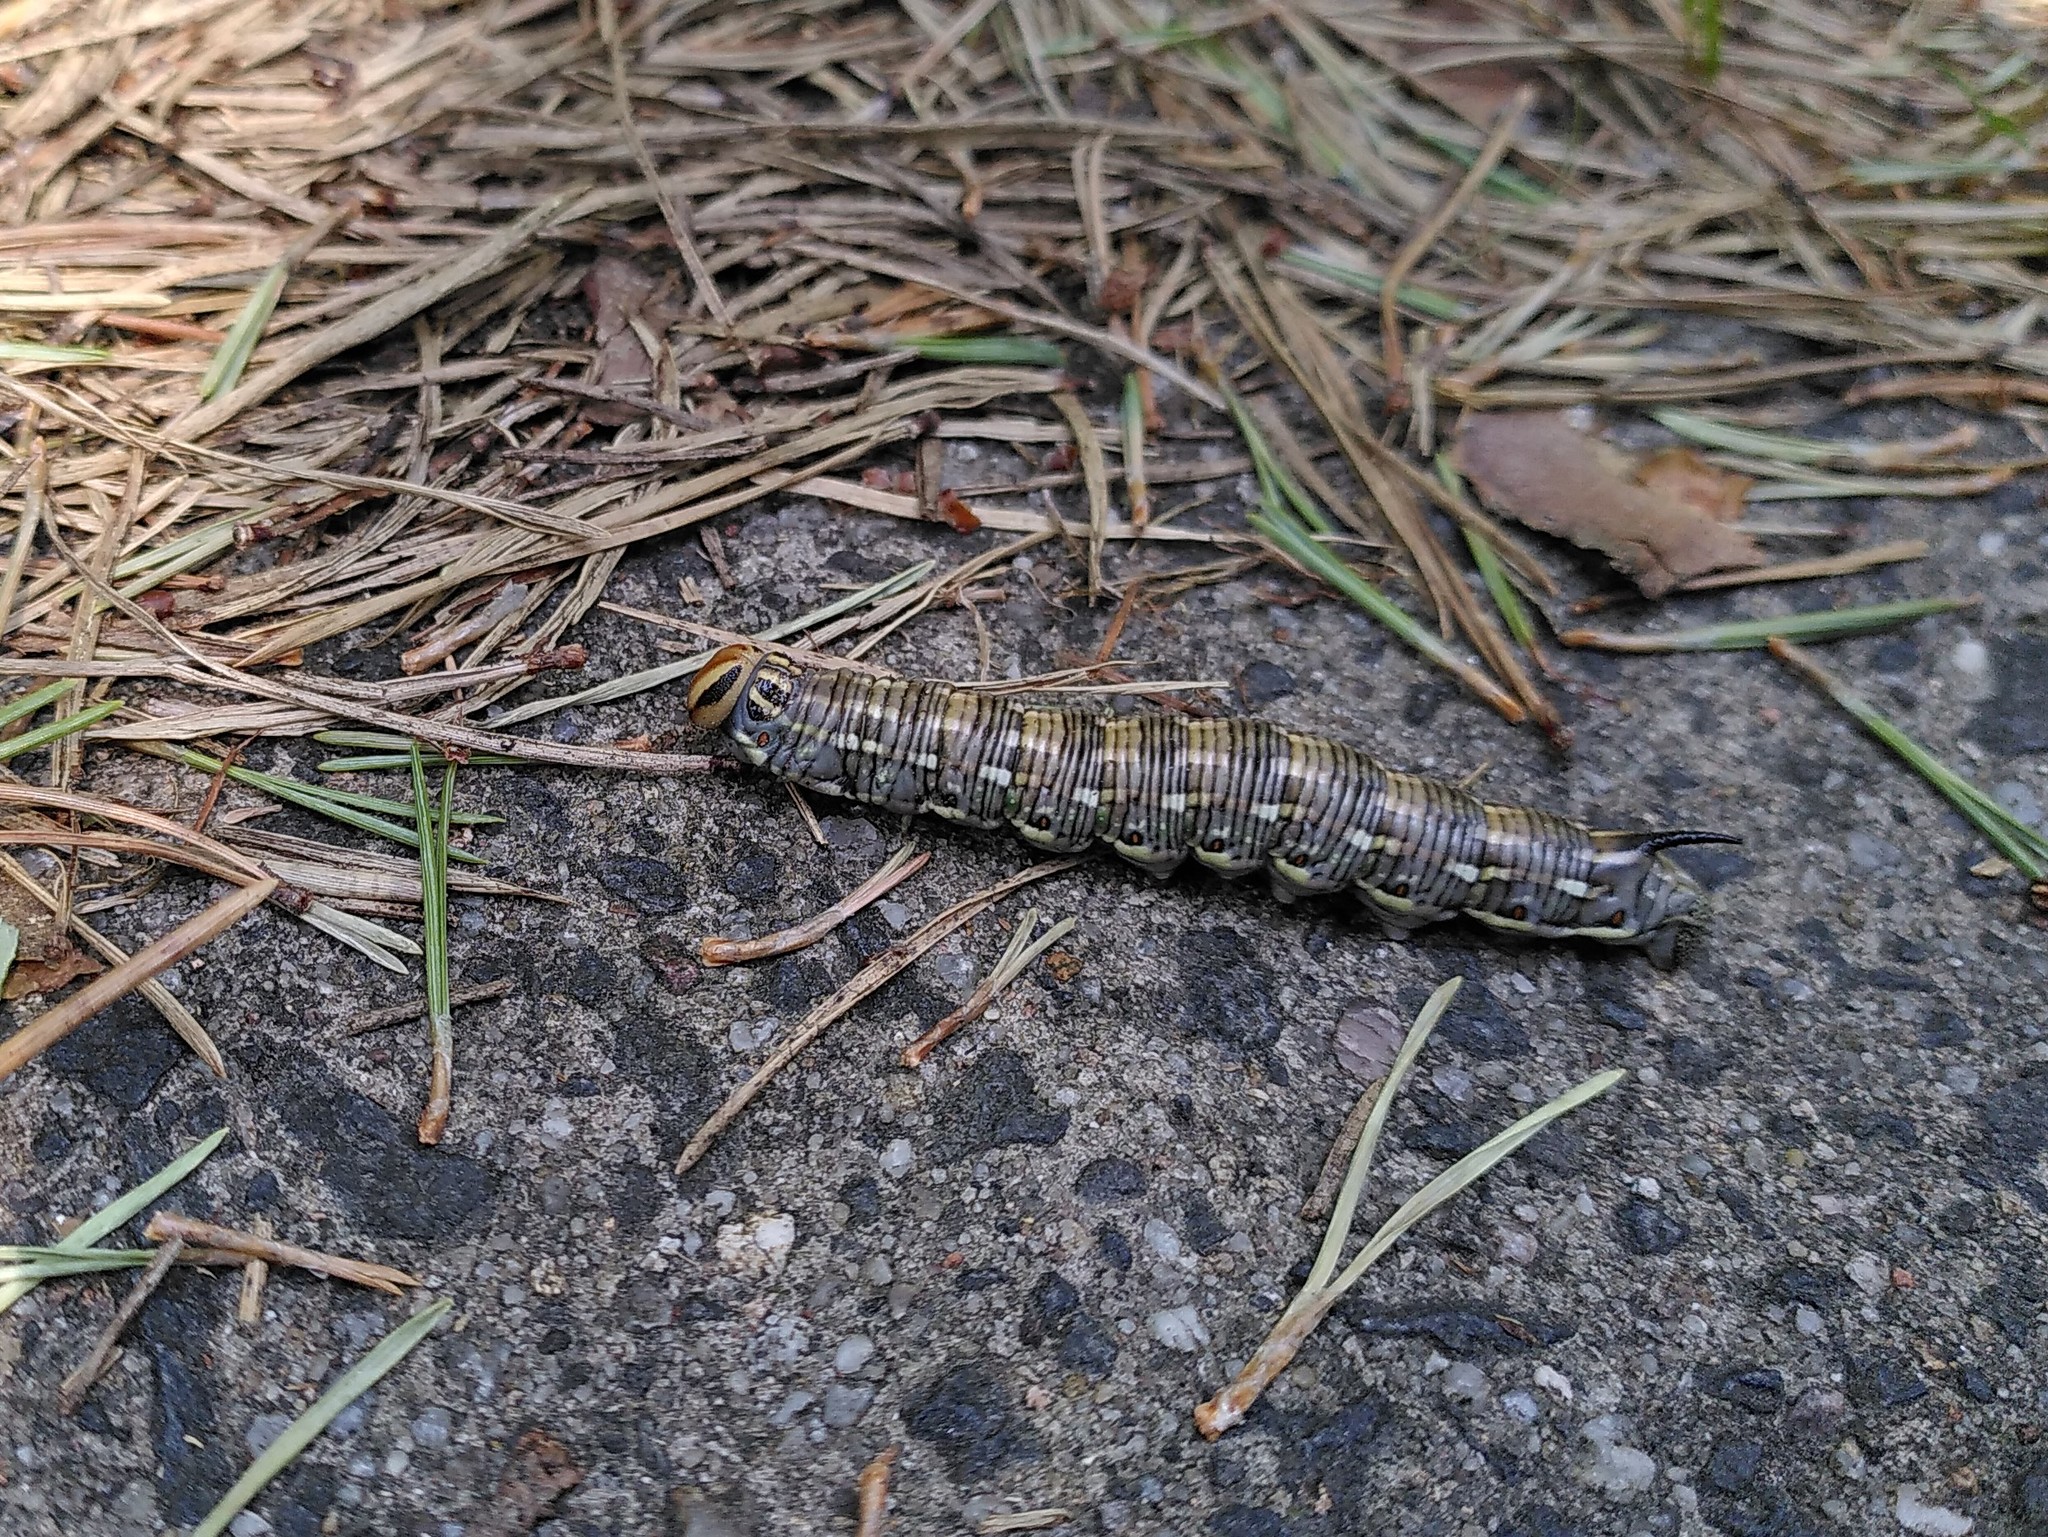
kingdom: Animalia
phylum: Arthropoda
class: Insecta
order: Lepidoptera
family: Sphingidae
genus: Sphinx
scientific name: Sphinx pinastri
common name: Pine hawk-moth
